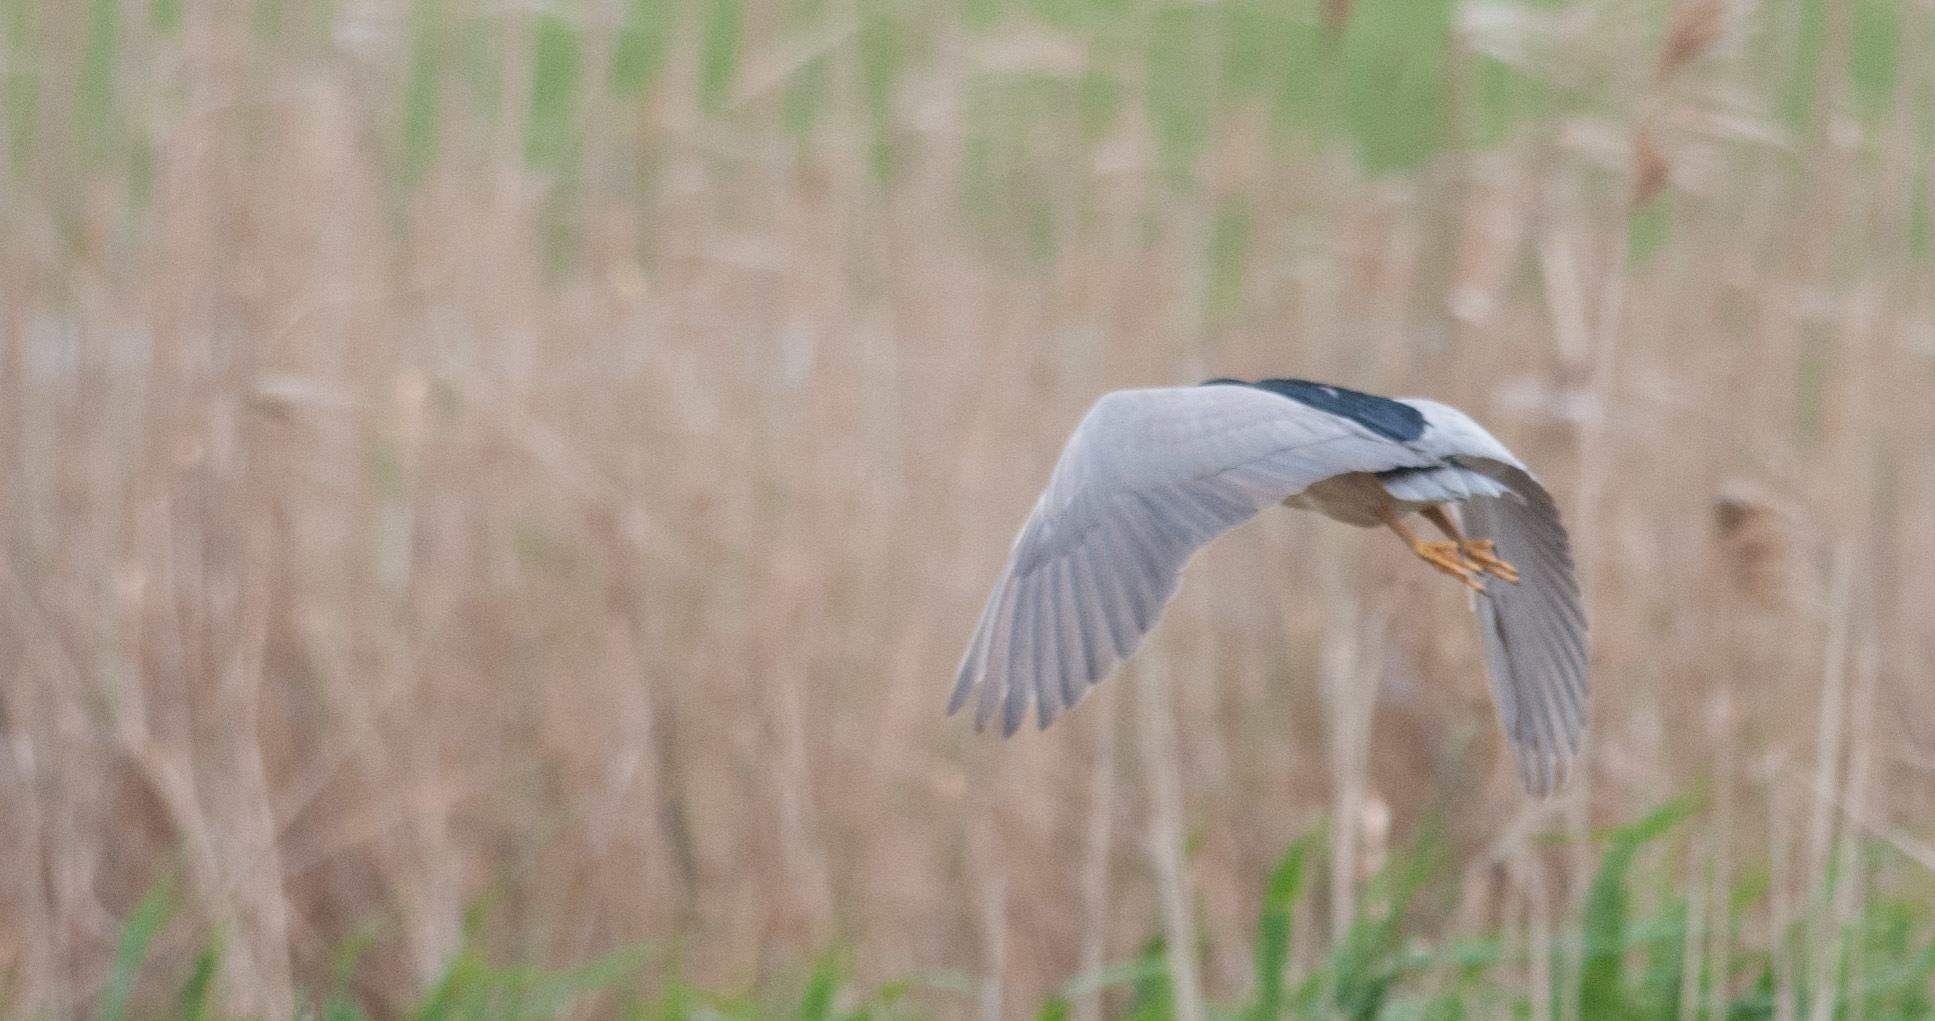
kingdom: Animalia
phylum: Chordata
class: Aves
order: Pelecaniformes
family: Ardeidae
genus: Nycticorax
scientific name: Nycticorax nycticorax
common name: Black-crowned night heron
